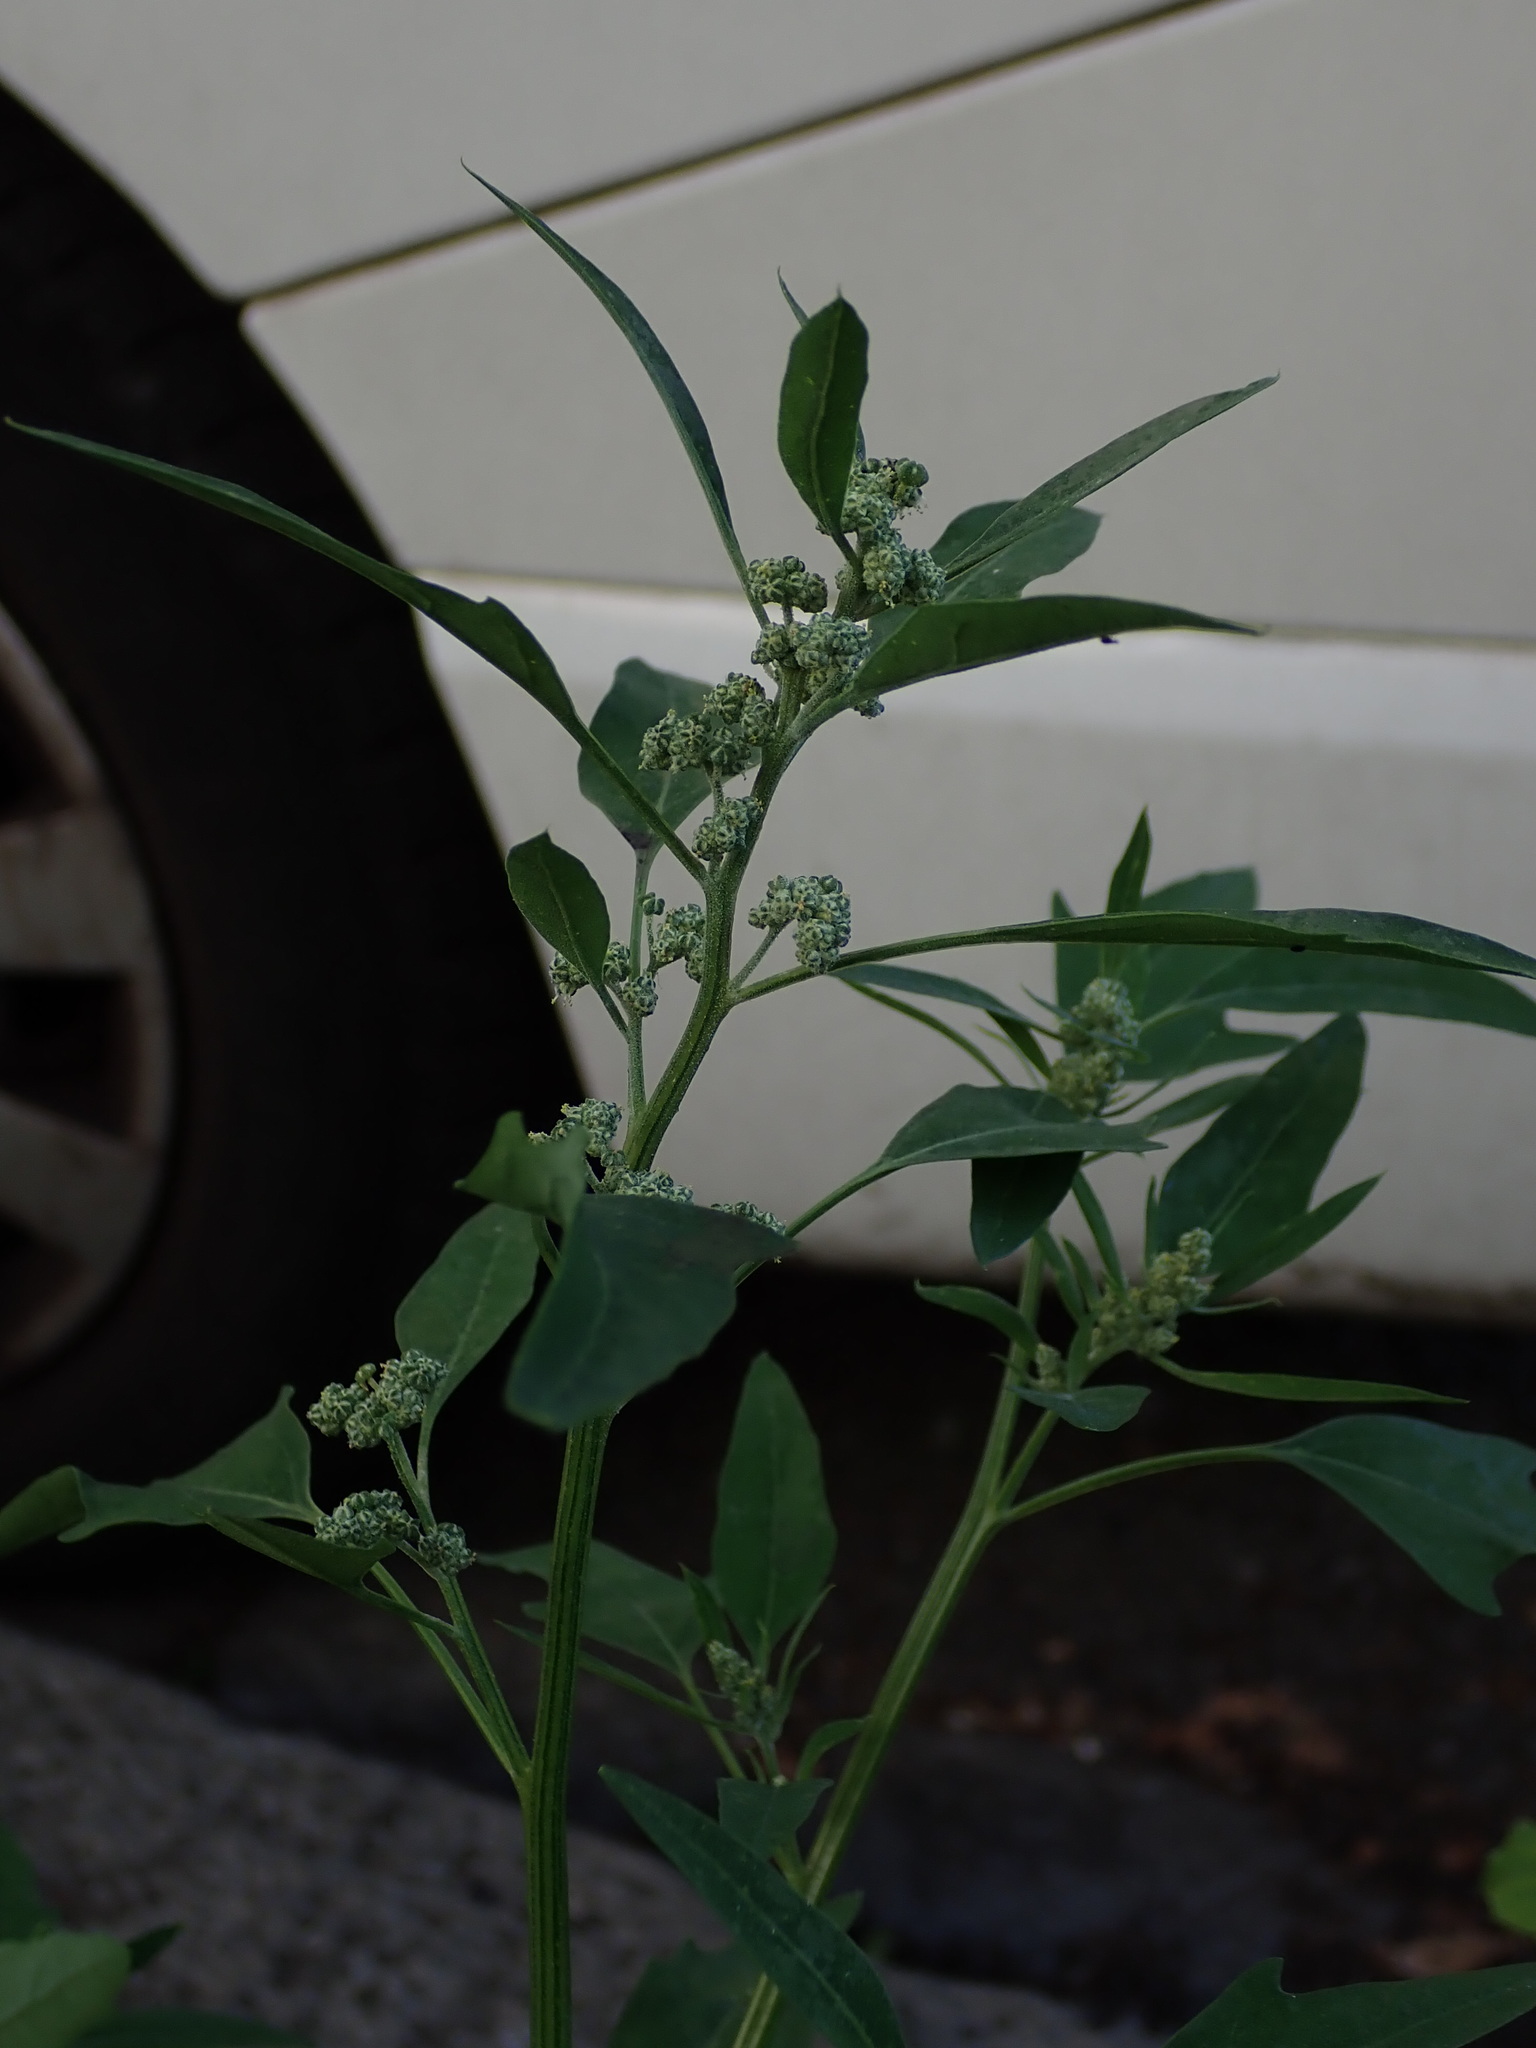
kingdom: Plantae
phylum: Tracheophyta
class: Magnoliopsida
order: Caryophyllales
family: Amaranthaceae
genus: Chenopodium
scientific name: Chenopodium album
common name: Fat-hen
